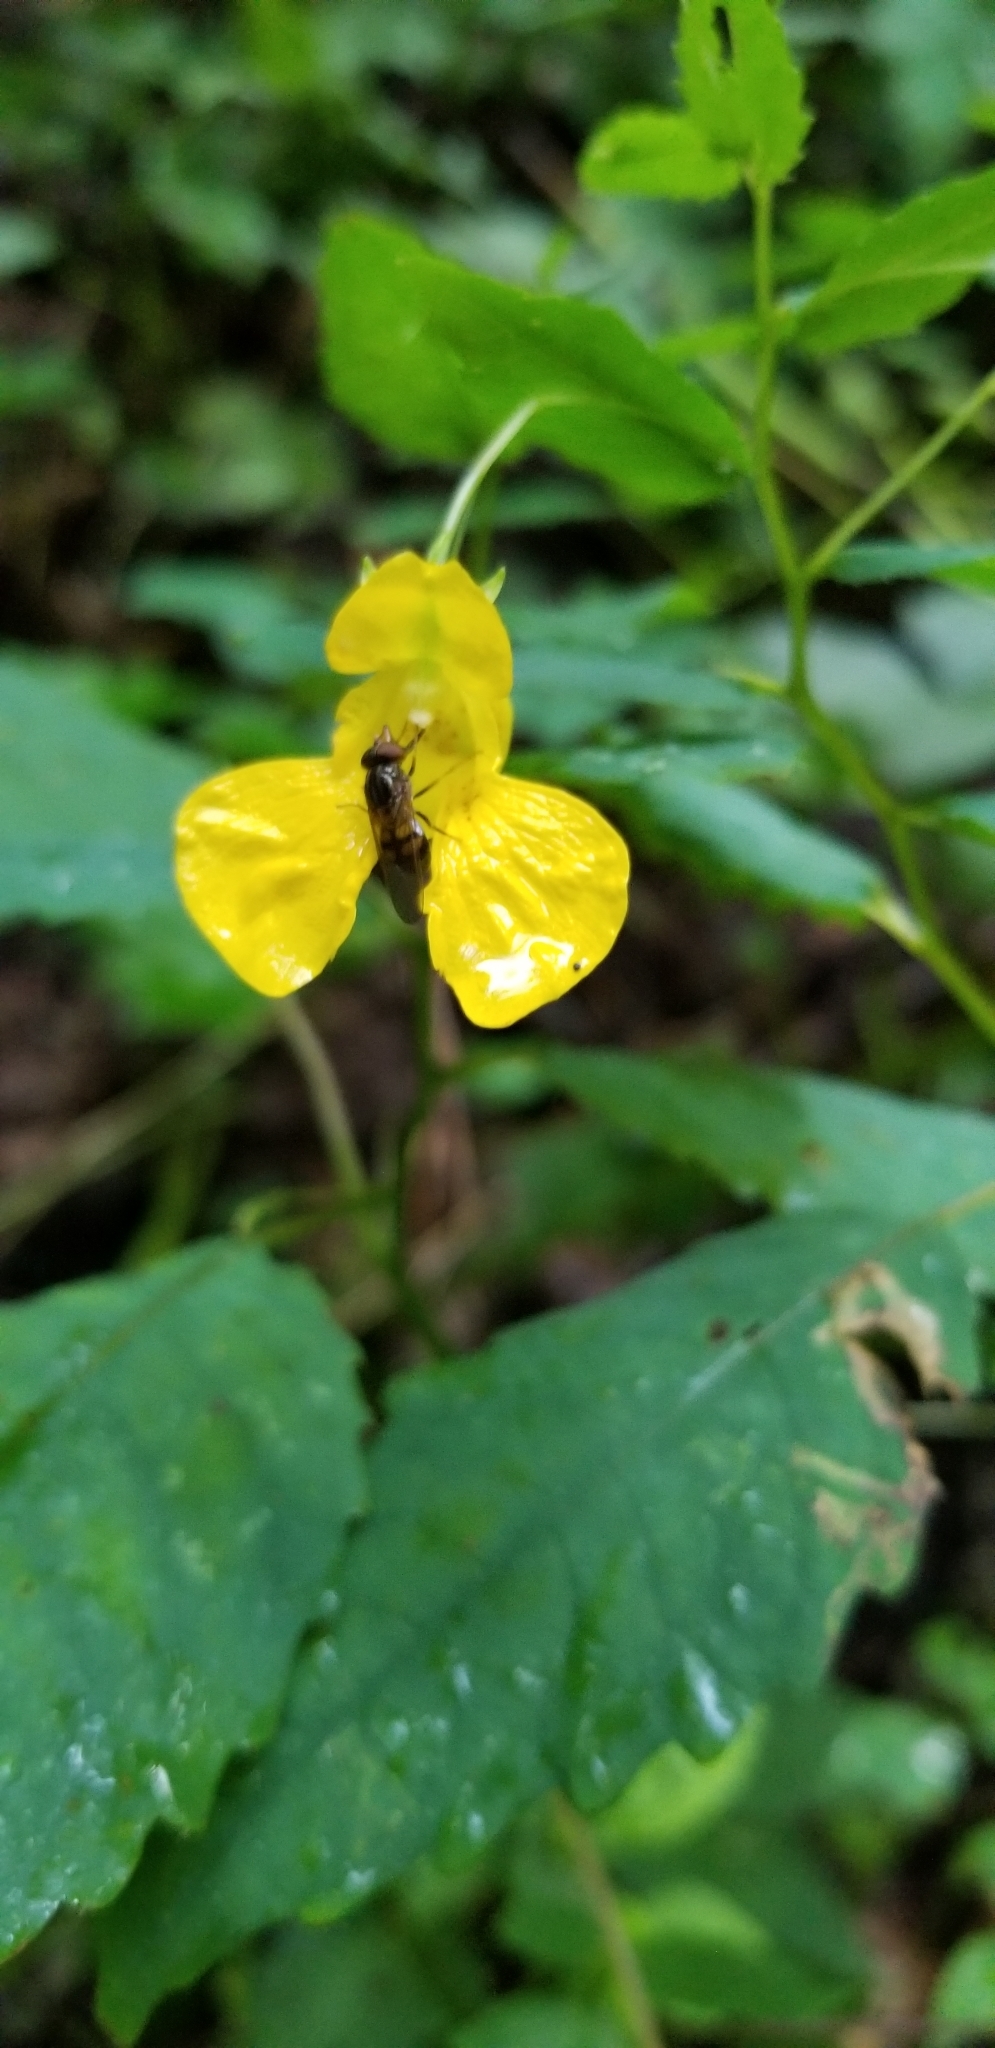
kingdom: Plantae
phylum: Tracheophyta
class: Magnoliopsida
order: Ericales
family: Balsaminaceae
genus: Impatiens
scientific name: Impatiens pallida
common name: Pale snapweed
